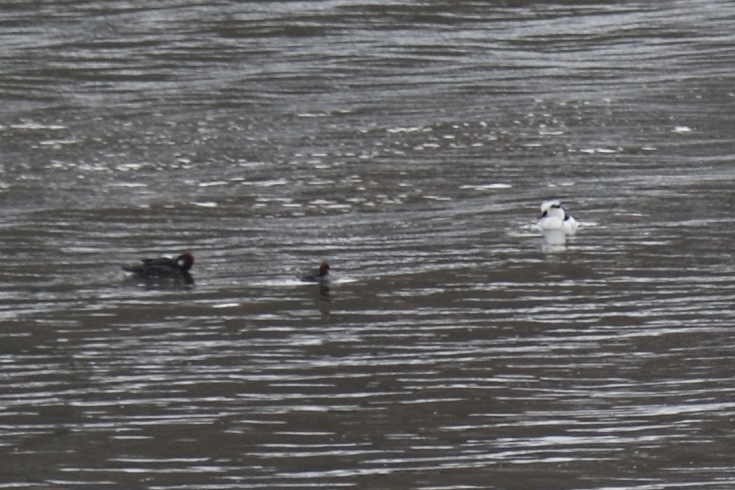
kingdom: Animalia
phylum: Chordata
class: Aves
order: Anseriformes
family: Anatidae
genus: Mergellus
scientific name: Mergellus albellus
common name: Smew
